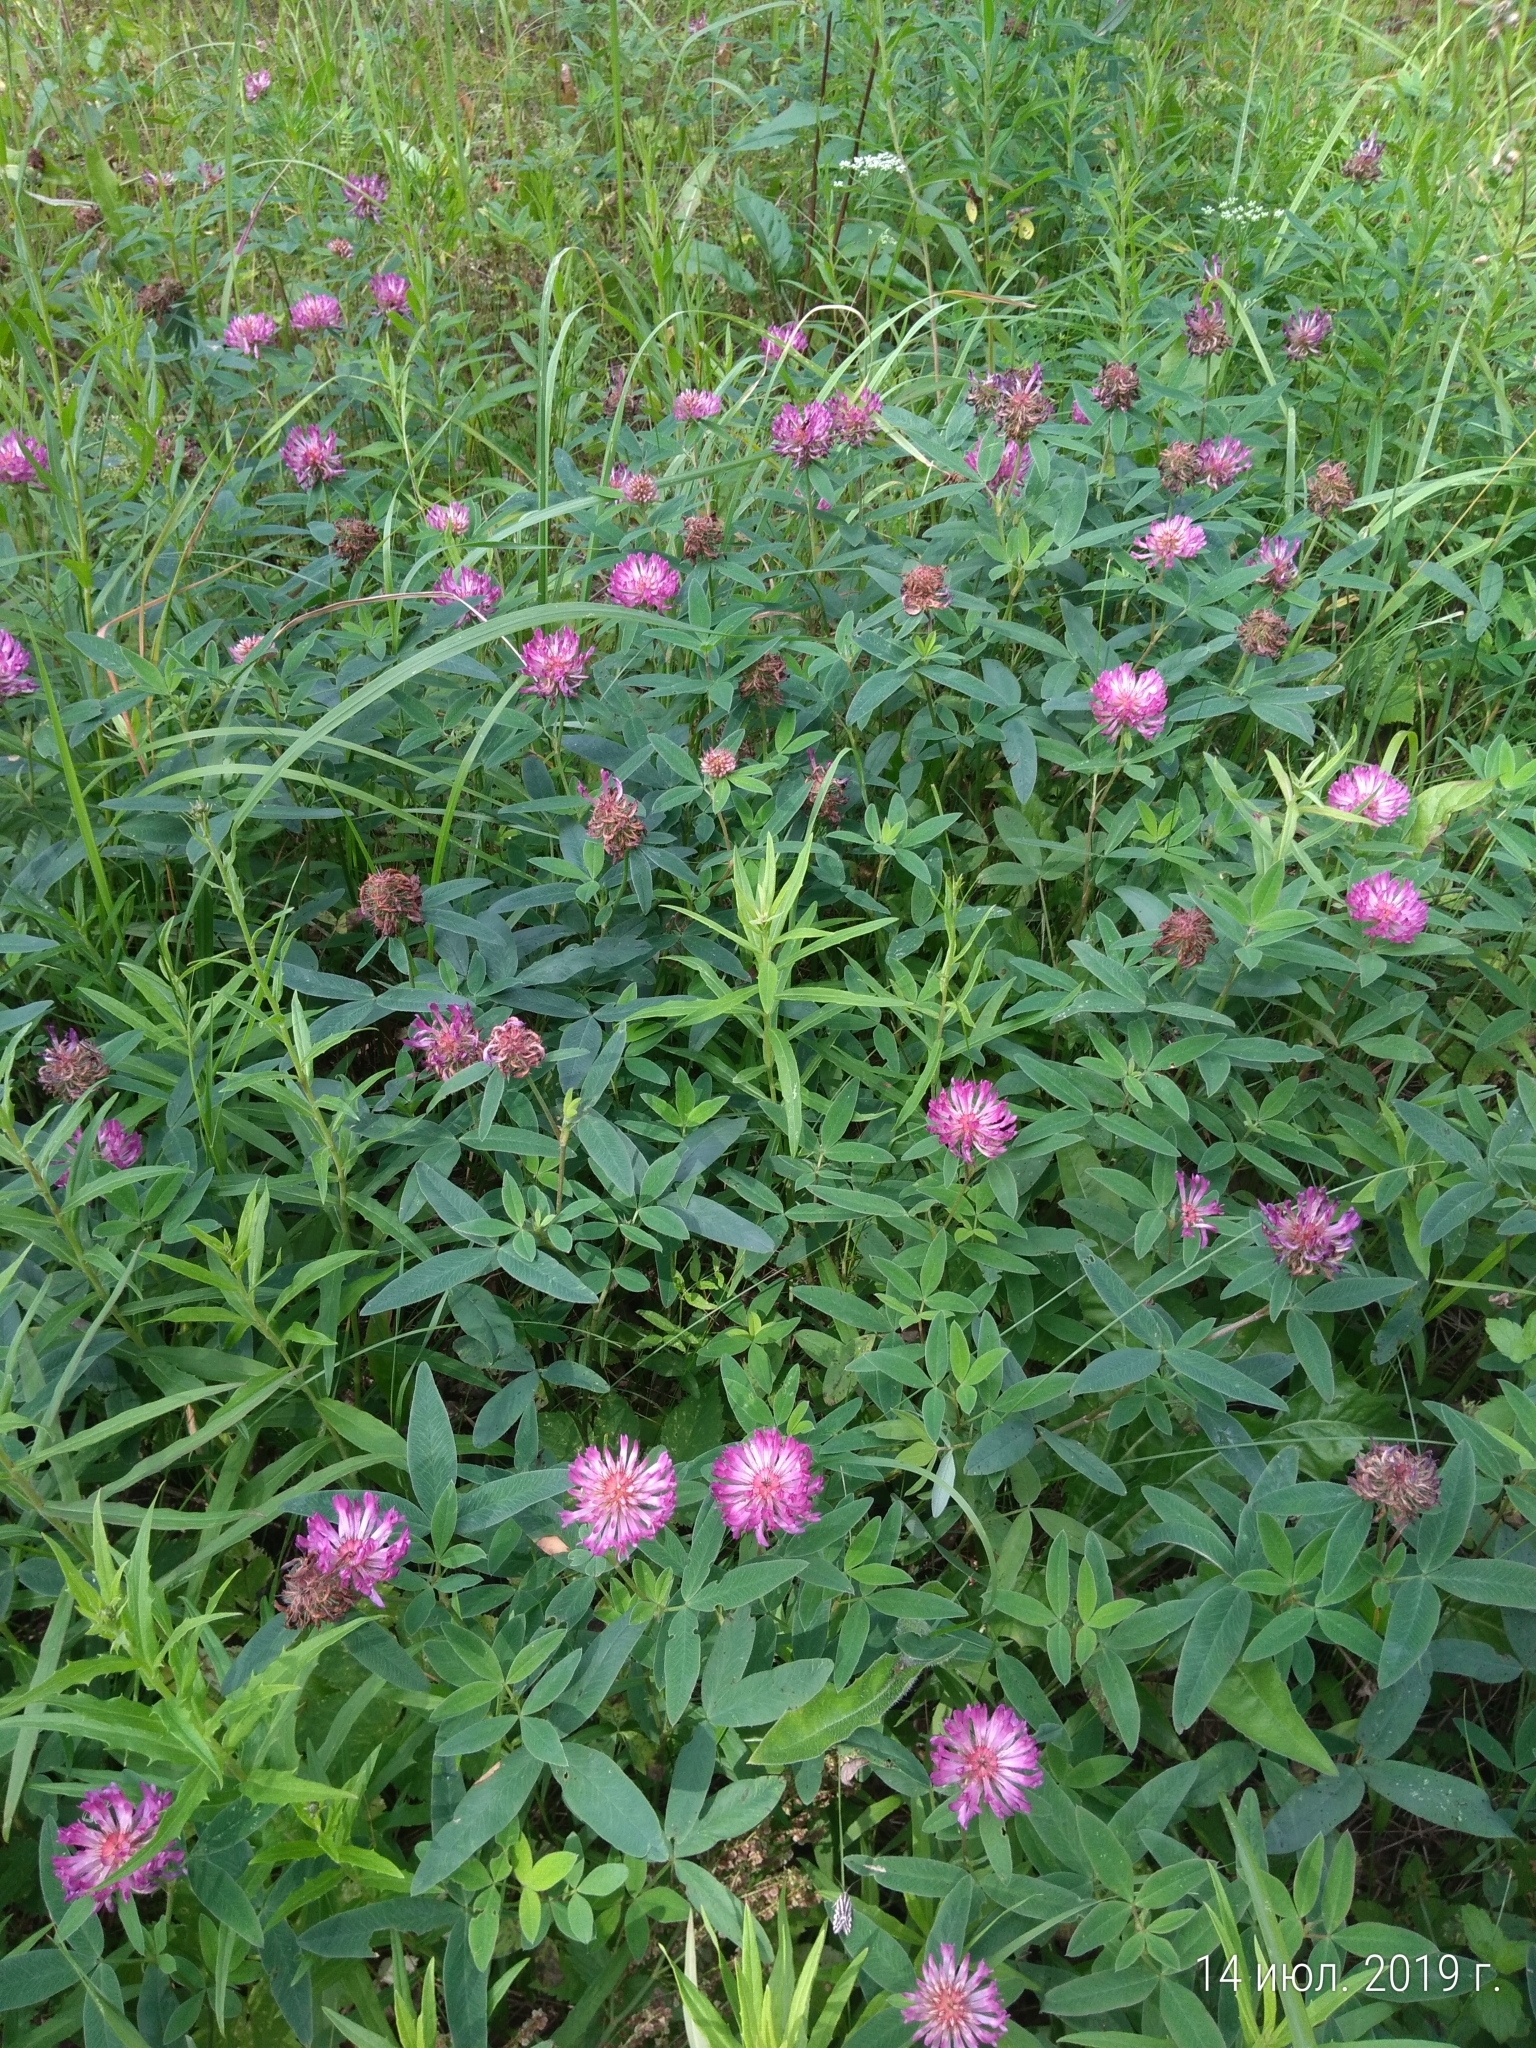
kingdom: Plantae
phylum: Tracheophyta
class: Magnoliopsida
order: Fabales
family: Fabaceae
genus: Trifolium
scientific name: Trifolium medium
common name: Zigzag clover
